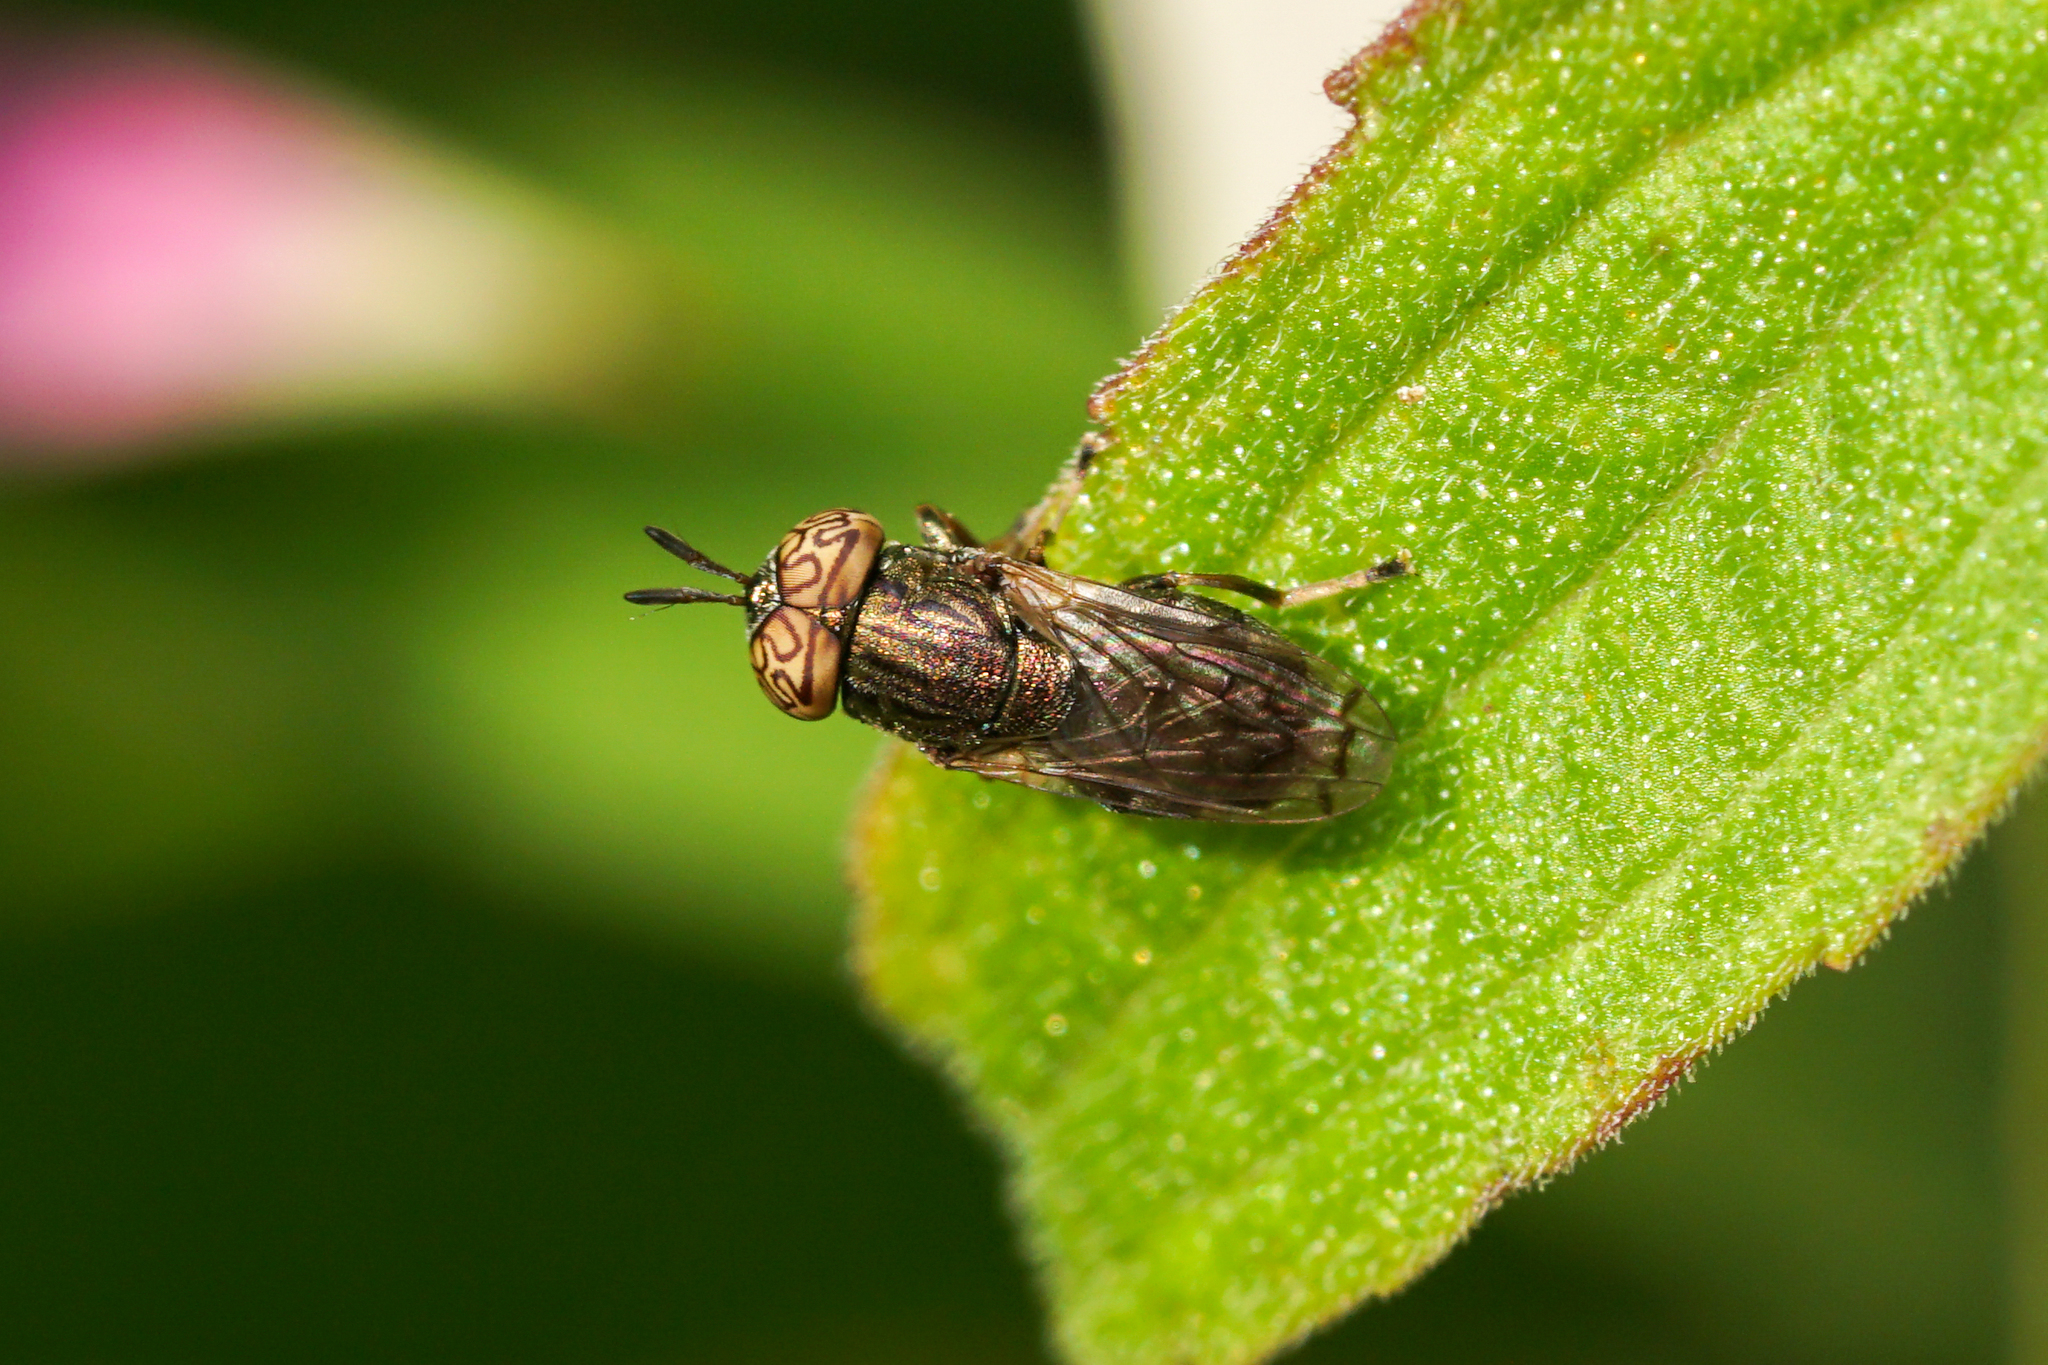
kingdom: Animalia
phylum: Arthropoda
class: Insecta
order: Diptera
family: Syrphidae
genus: Orthonevra
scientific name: Orthonevra nitida
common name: Wavy mucksucker
